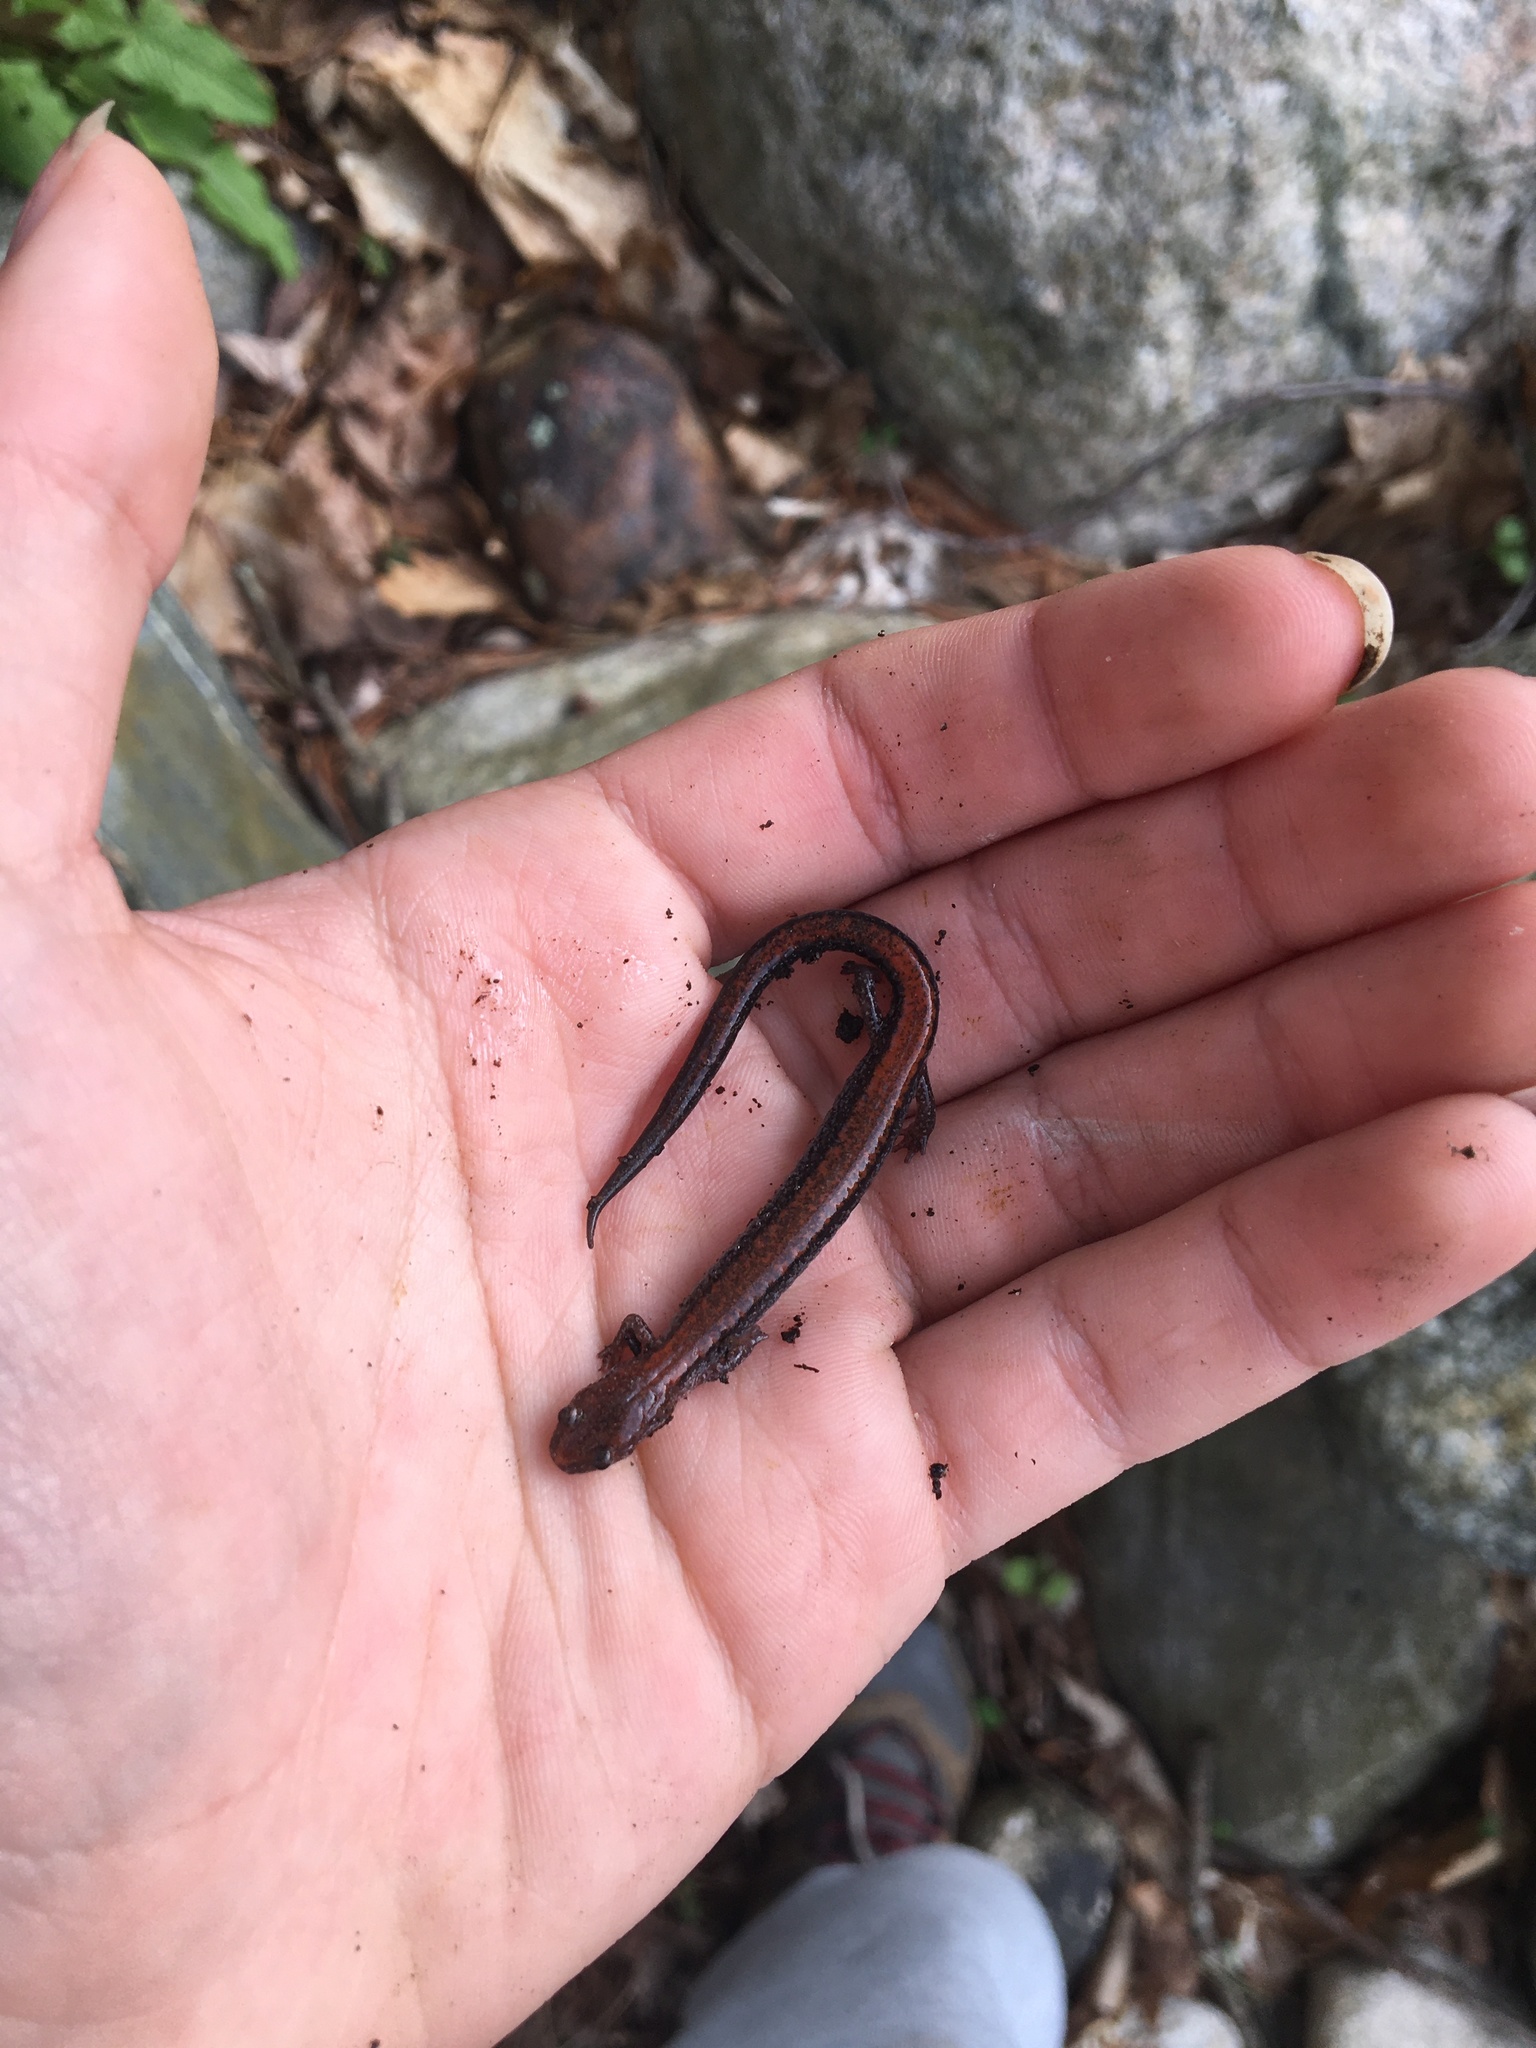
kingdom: Animalia
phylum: Chordata
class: Amphibia
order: Caudata
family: Plethodontidae
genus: Plethodon
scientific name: Plethodon cinereus
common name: Redback salamander
